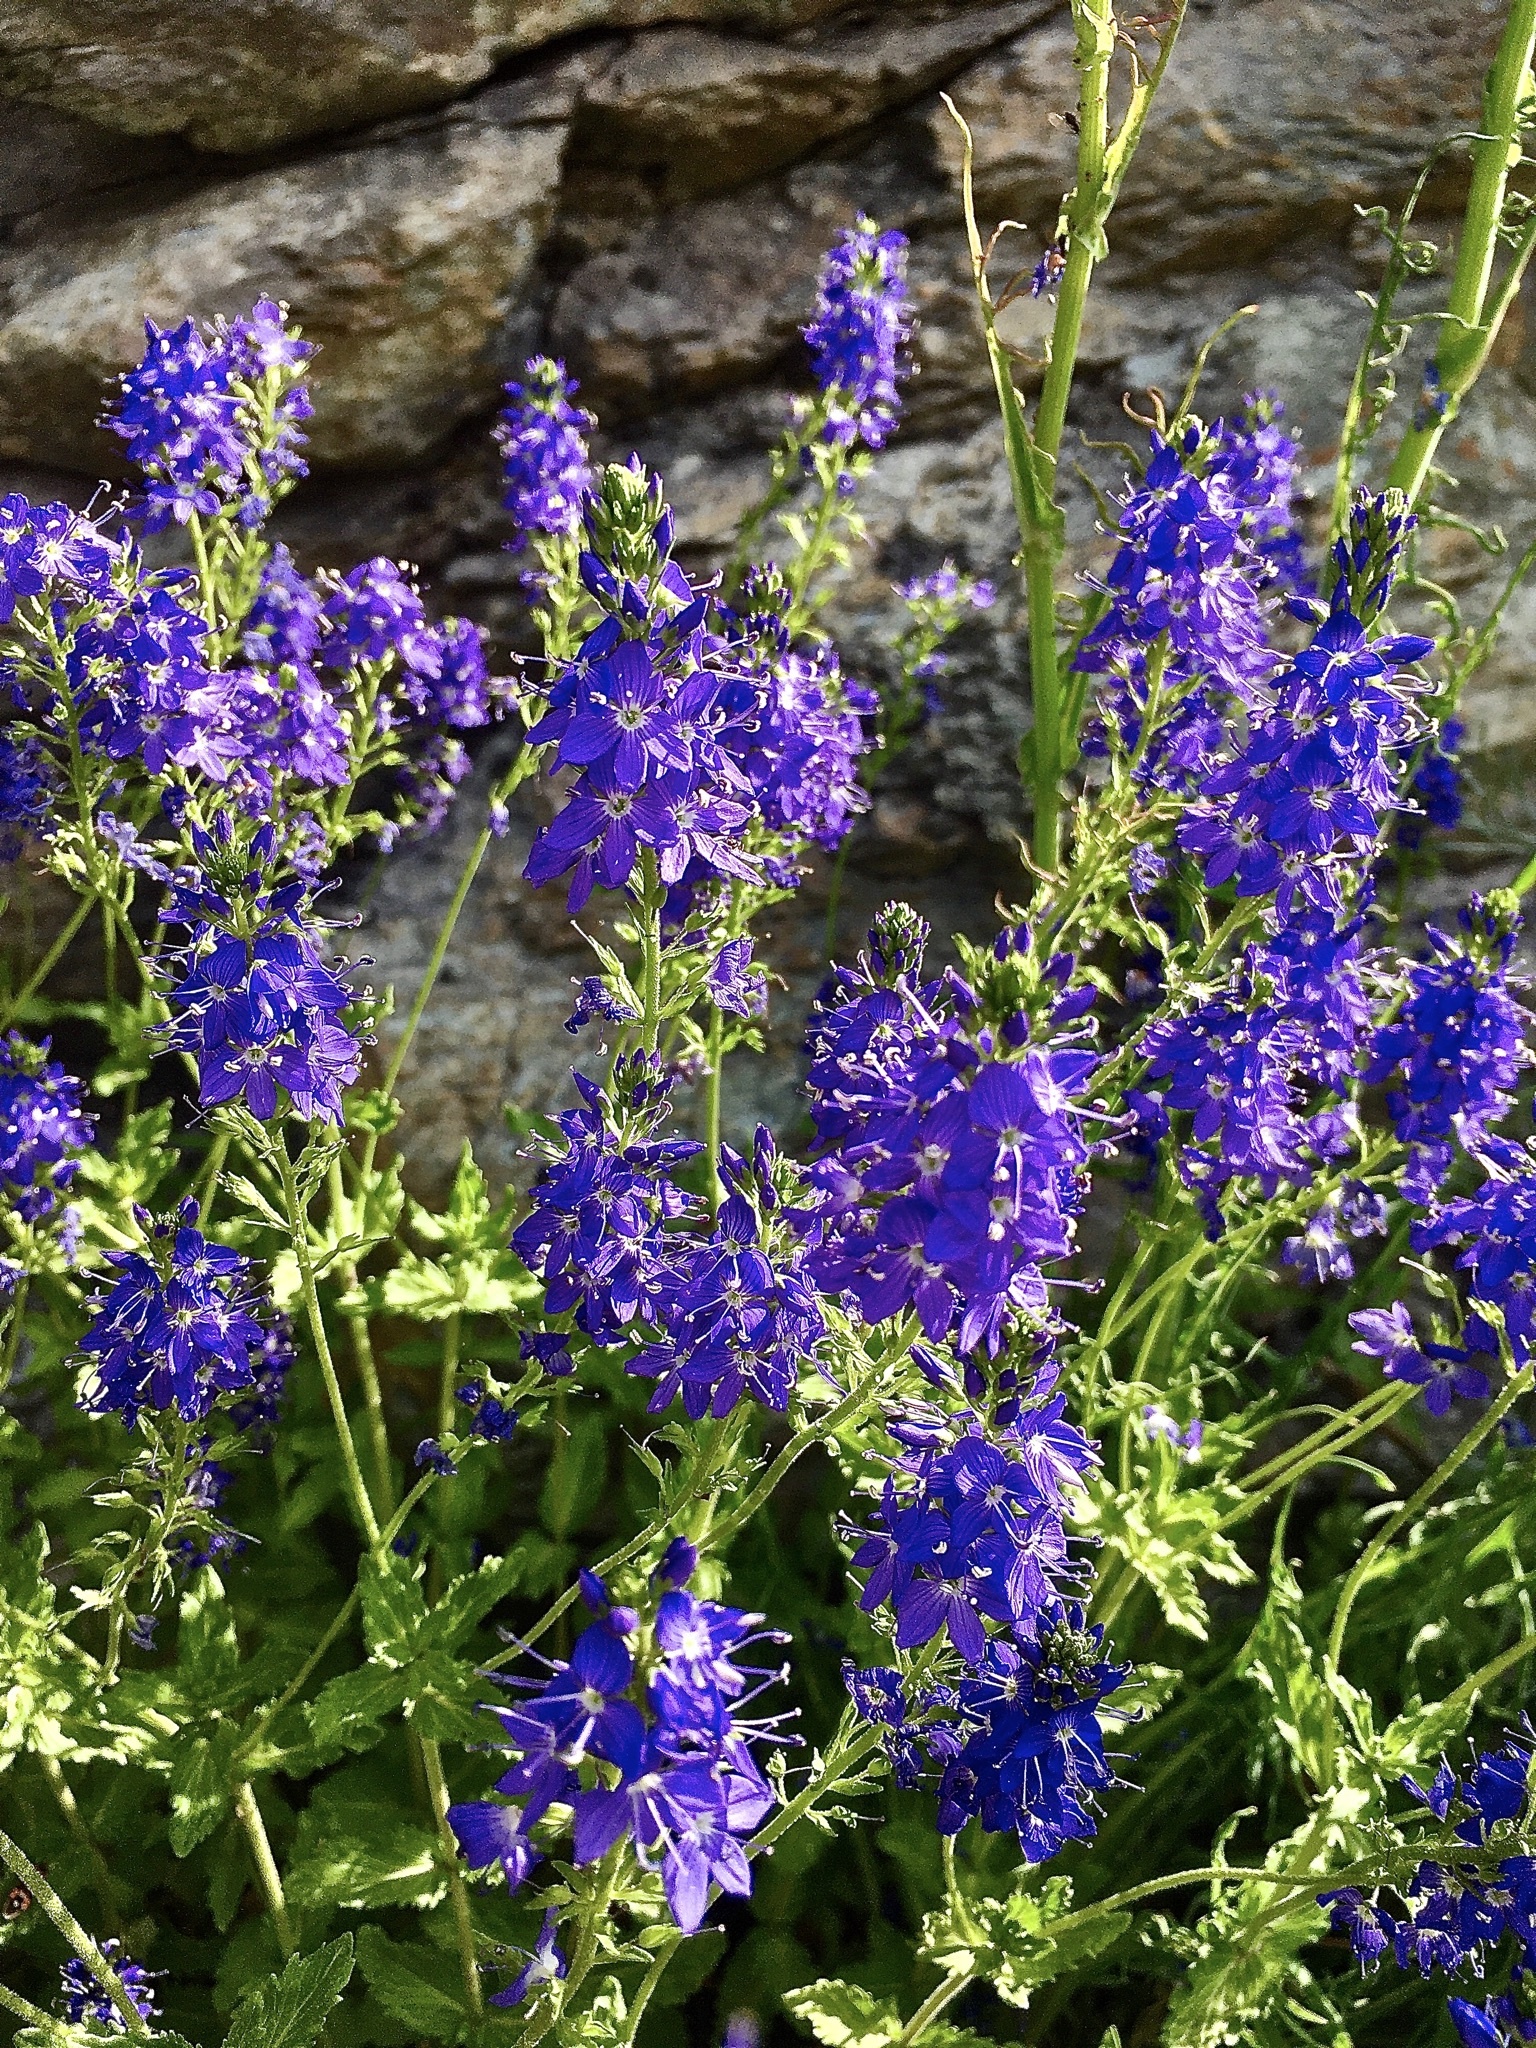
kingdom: Plantae
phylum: Tracheophyta
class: Magnoliopsida
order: Lamiales
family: Plantaginaceae
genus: Veronica
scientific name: Veronica teucrium
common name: Large speedwell
